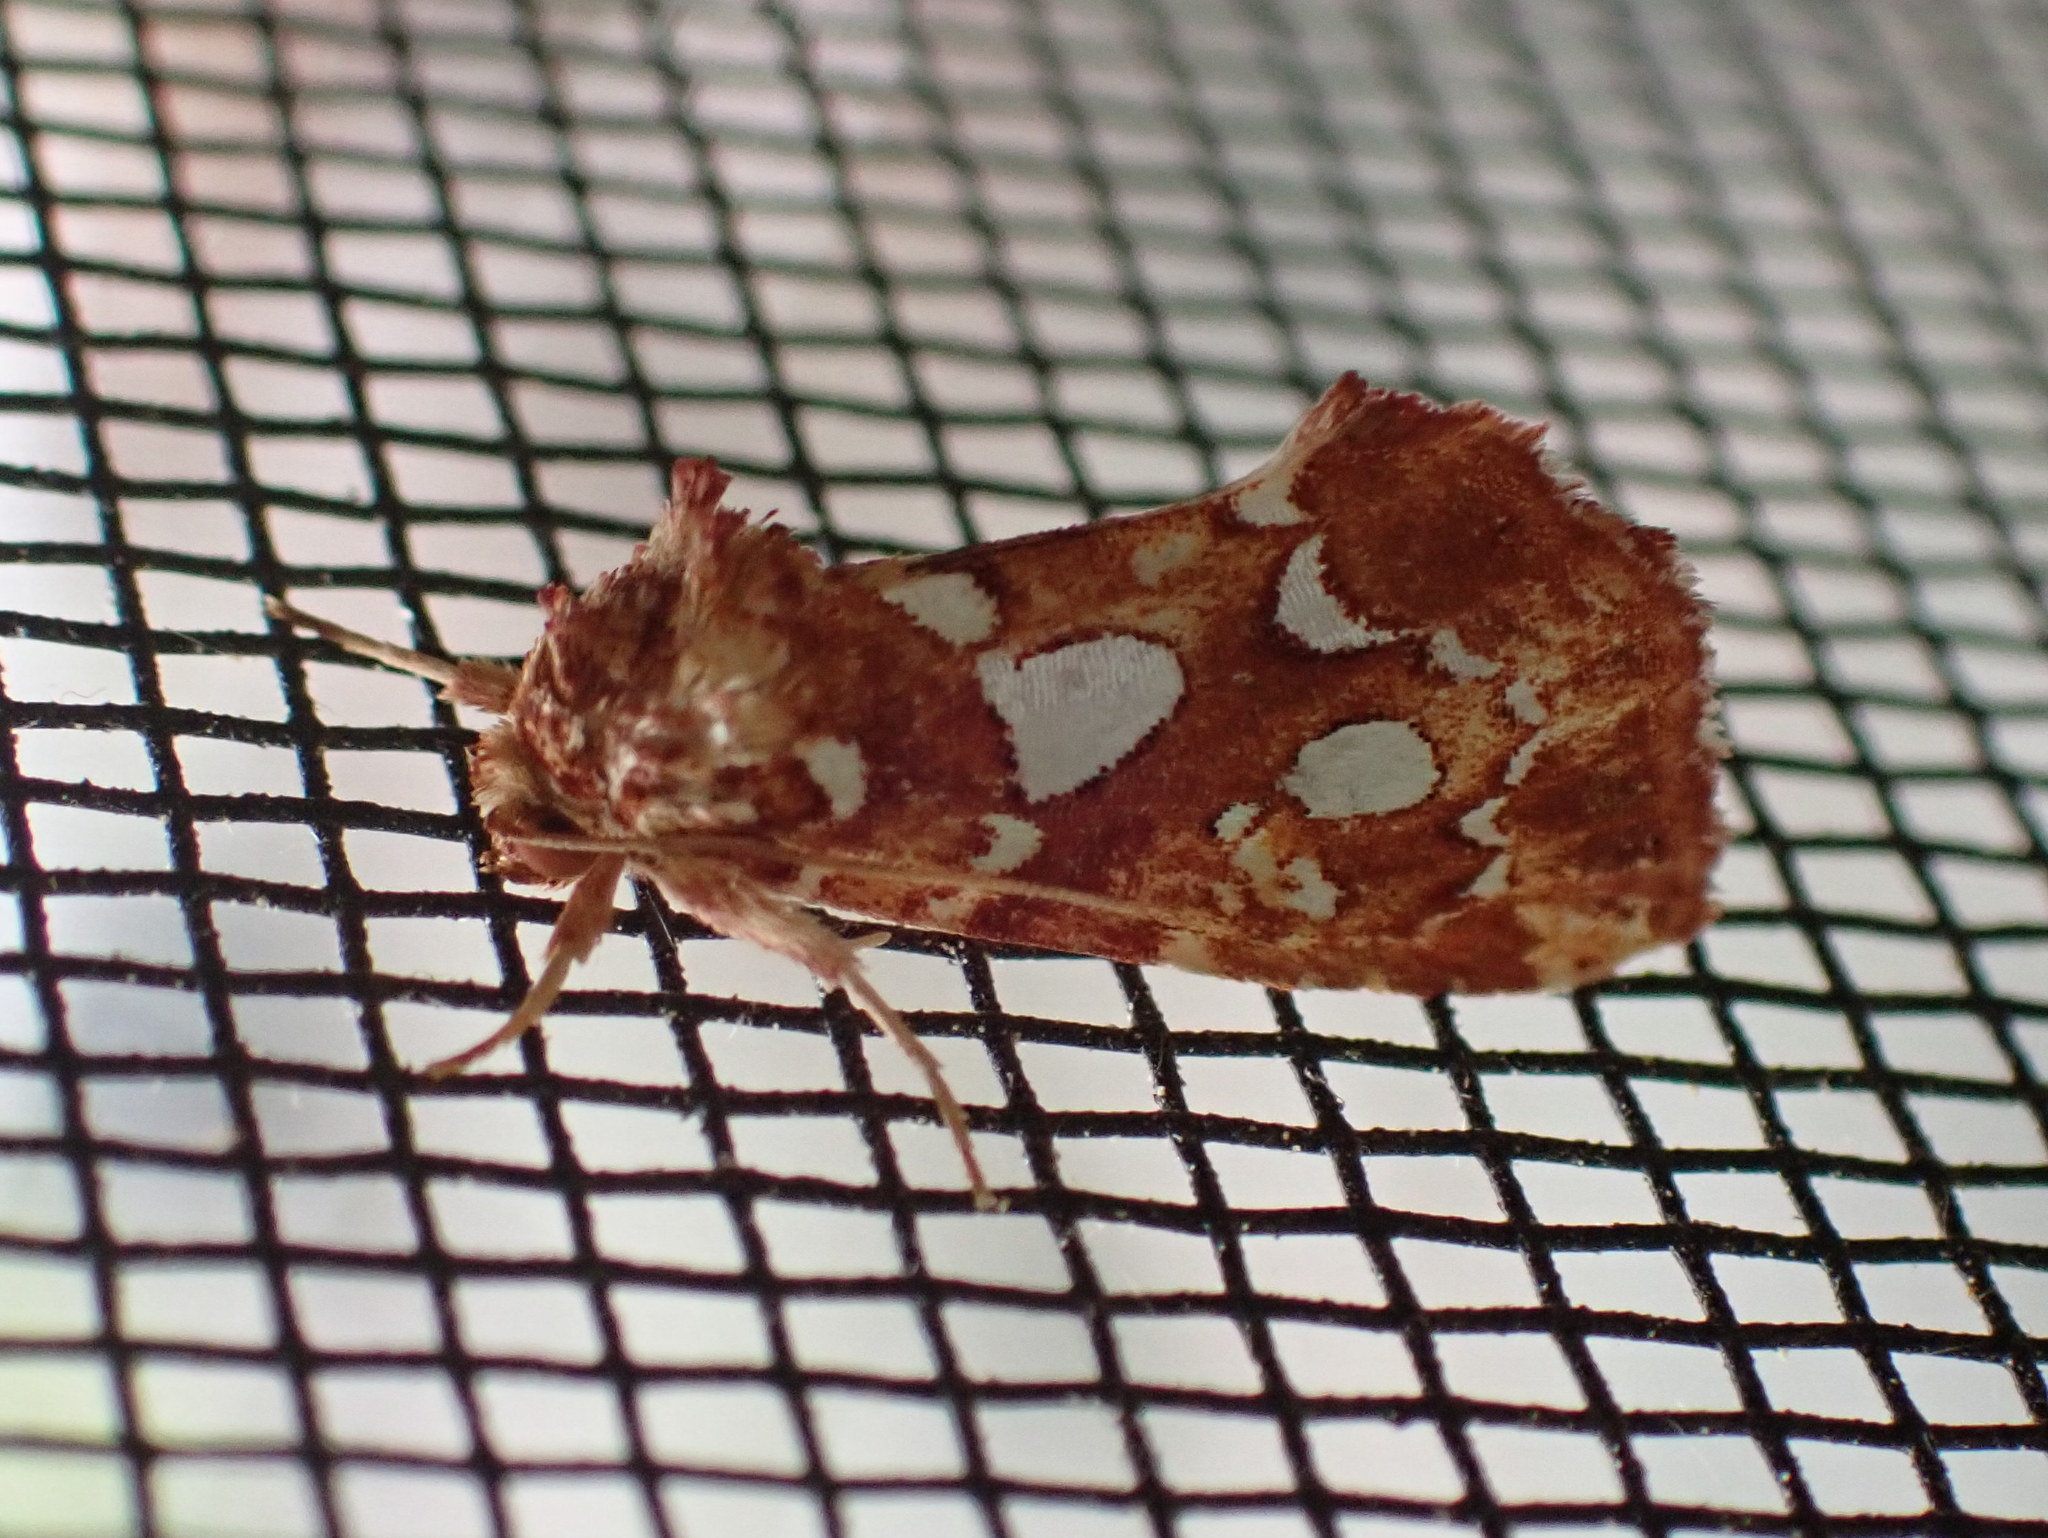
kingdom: Animalia
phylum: Arthropoda
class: Insecta
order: Lepidoptera
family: Noctuidae
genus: Callopistria
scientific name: Callopistria cordata
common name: Silver-spotted fern moth
